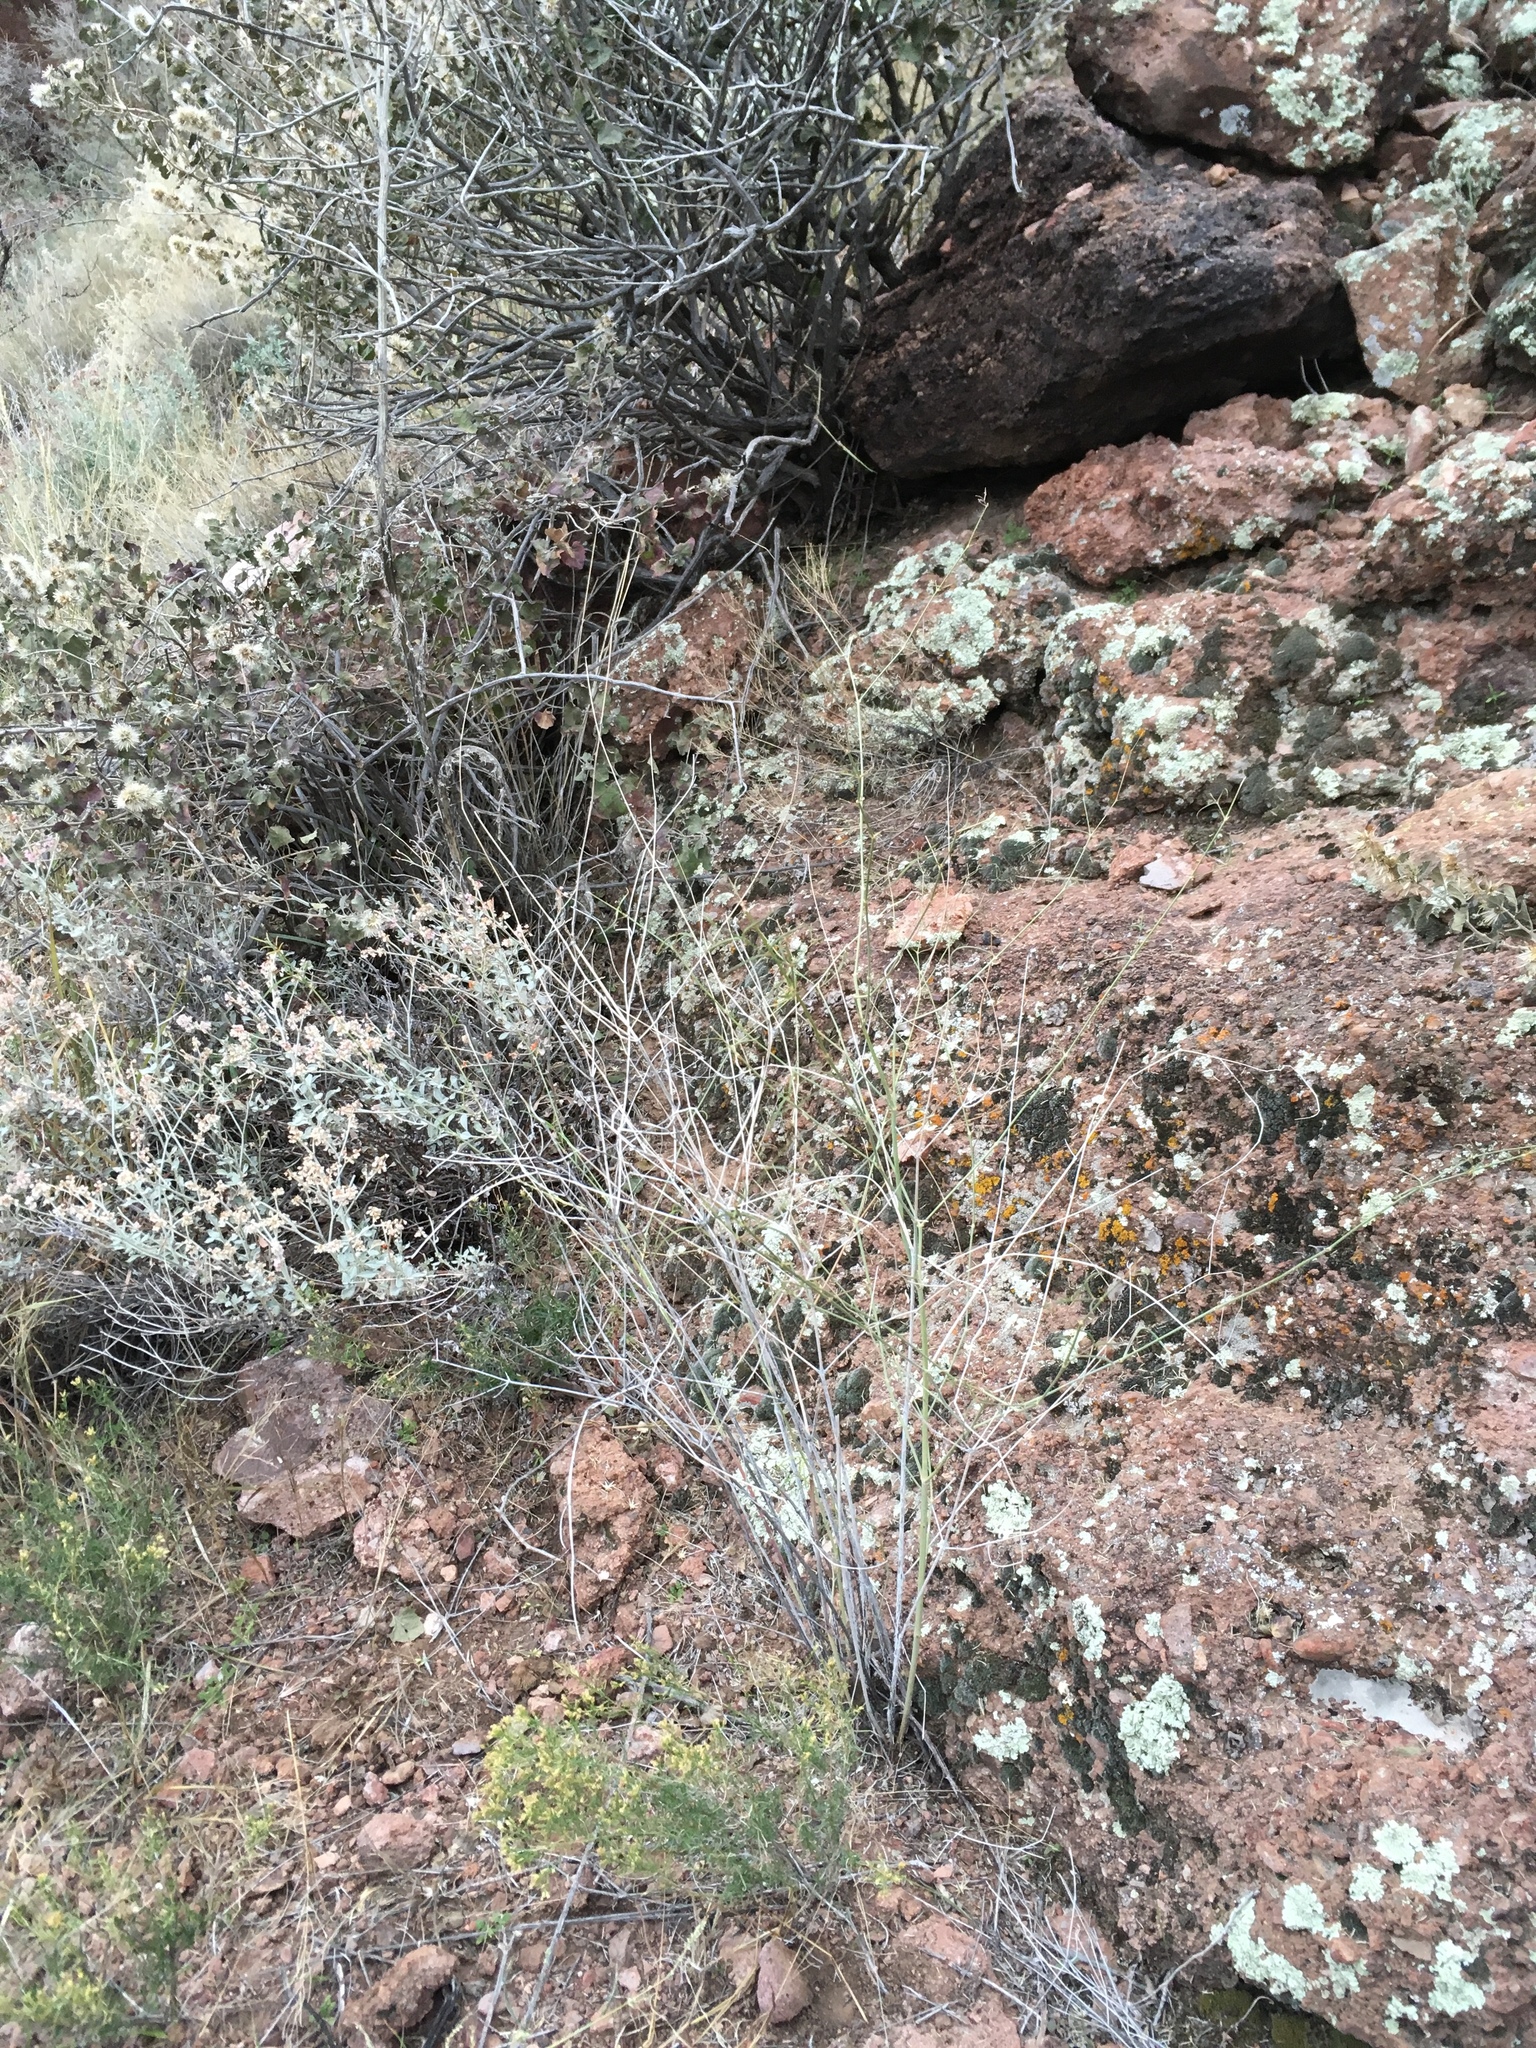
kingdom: Plantae
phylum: Tracheophyta
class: Magnoliopsida
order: Caryophyllales
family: Nyctaginaceae
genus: Mirabilis
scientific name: Mirabilis coccinea
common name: Scarlet four-o'clock
